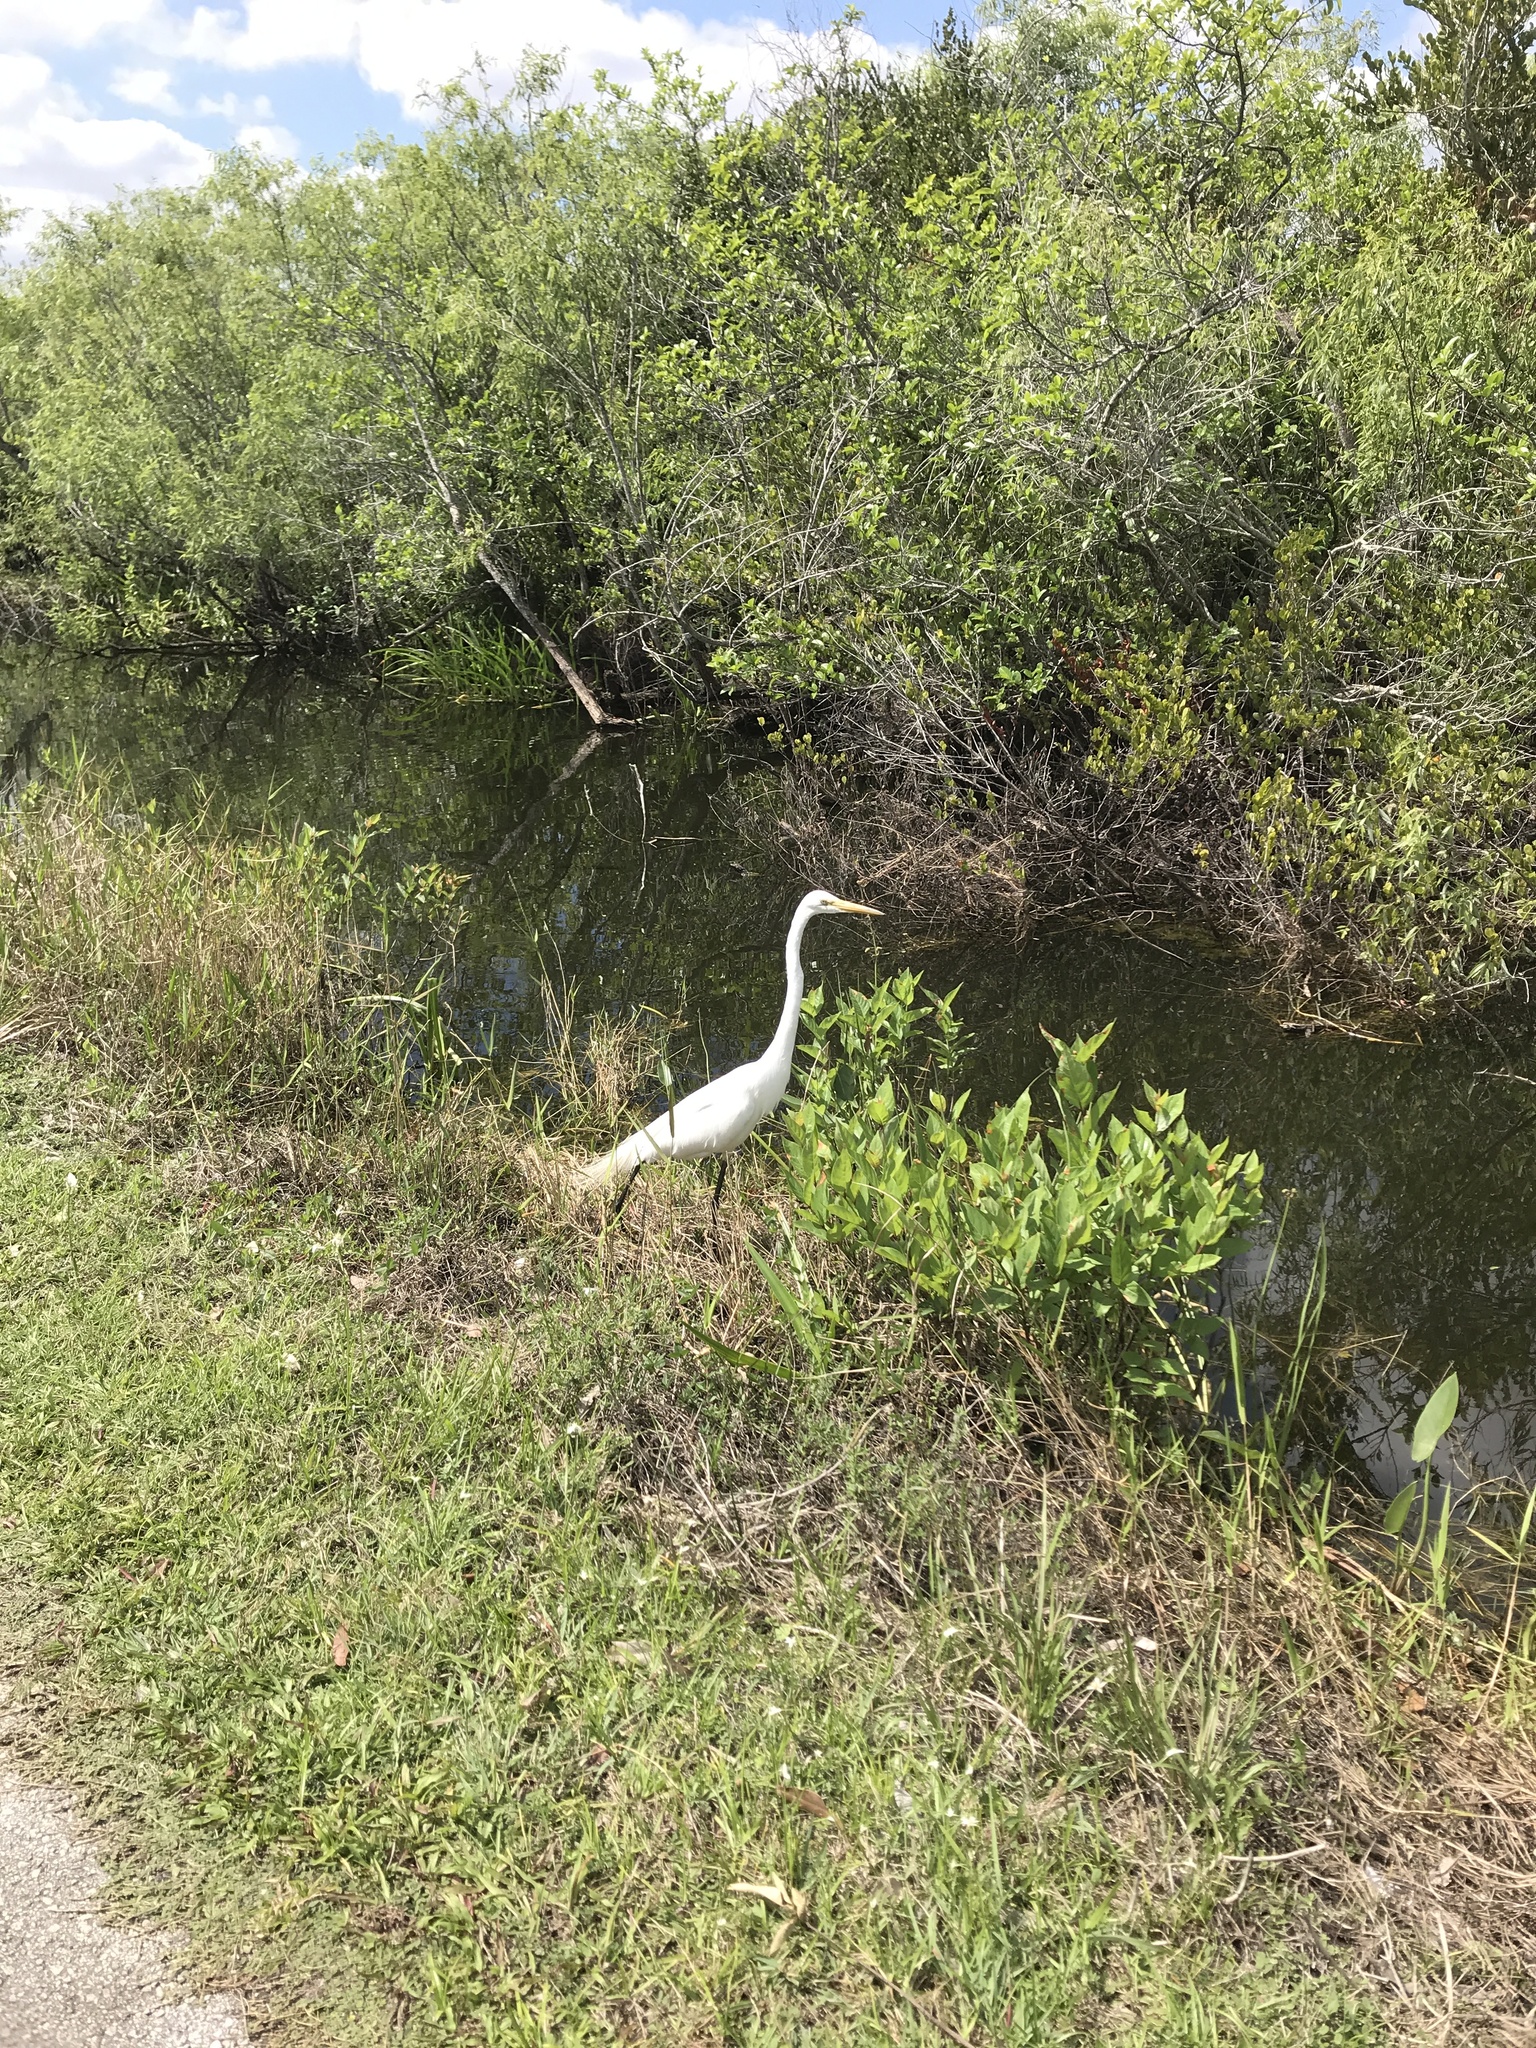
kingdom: Animalia
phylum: Chordata
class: Aves
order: Pelecaniformes
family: Ardeidae
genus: Ardea
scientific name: Ardea alba
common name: Great egret
